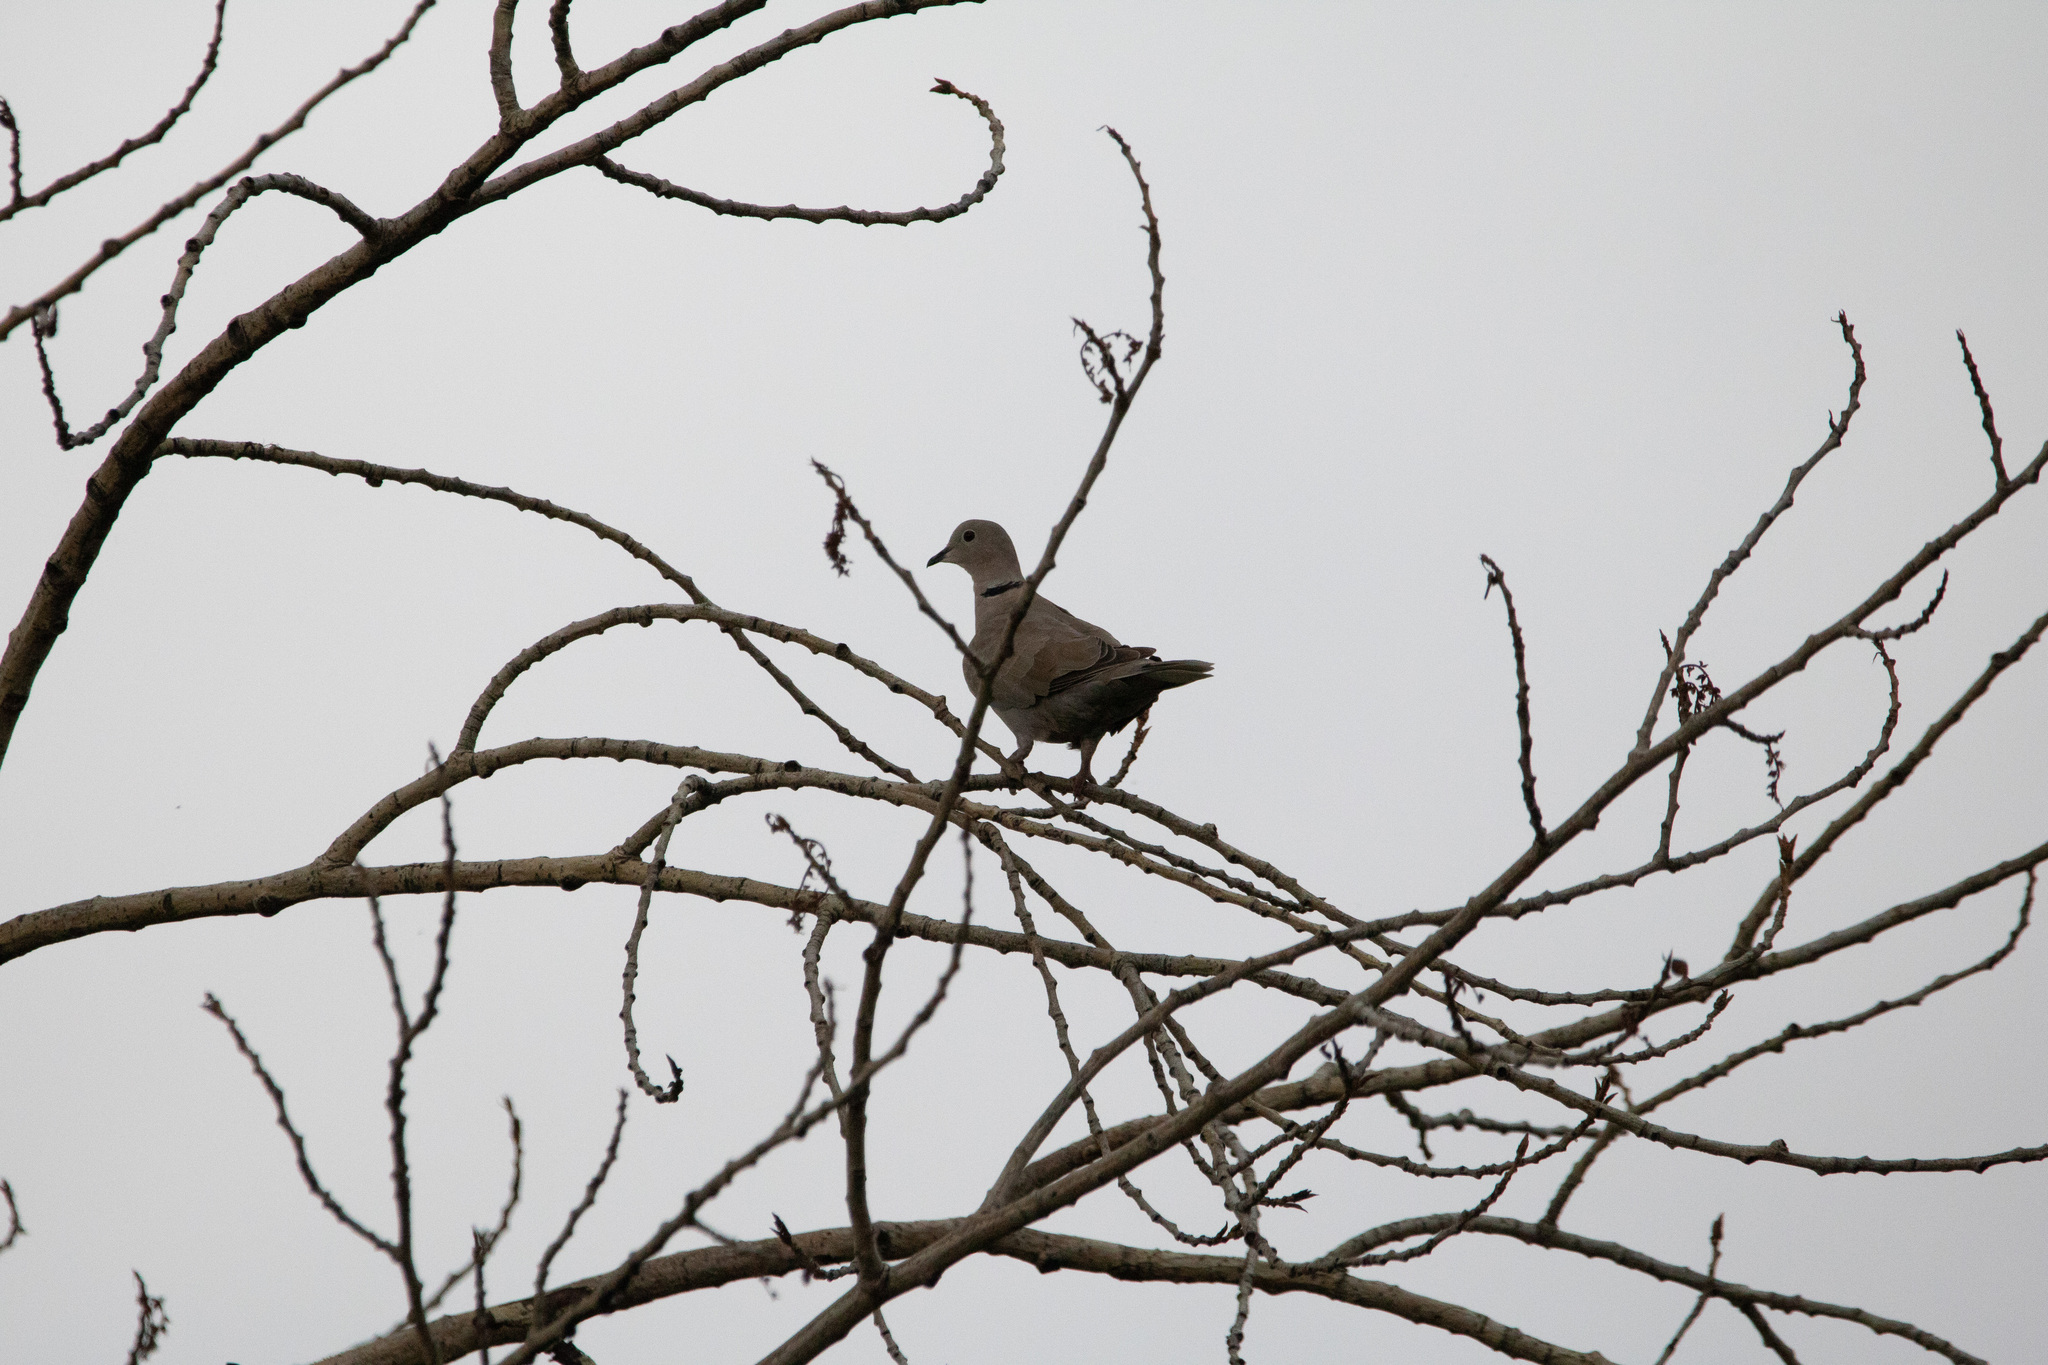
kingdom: Animalia
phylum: Chordata
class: Aves
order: Columbiformes
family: Columbidae
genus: Streptopelia
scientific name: Streptopelia decaocto
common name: Eurasian collared dove
